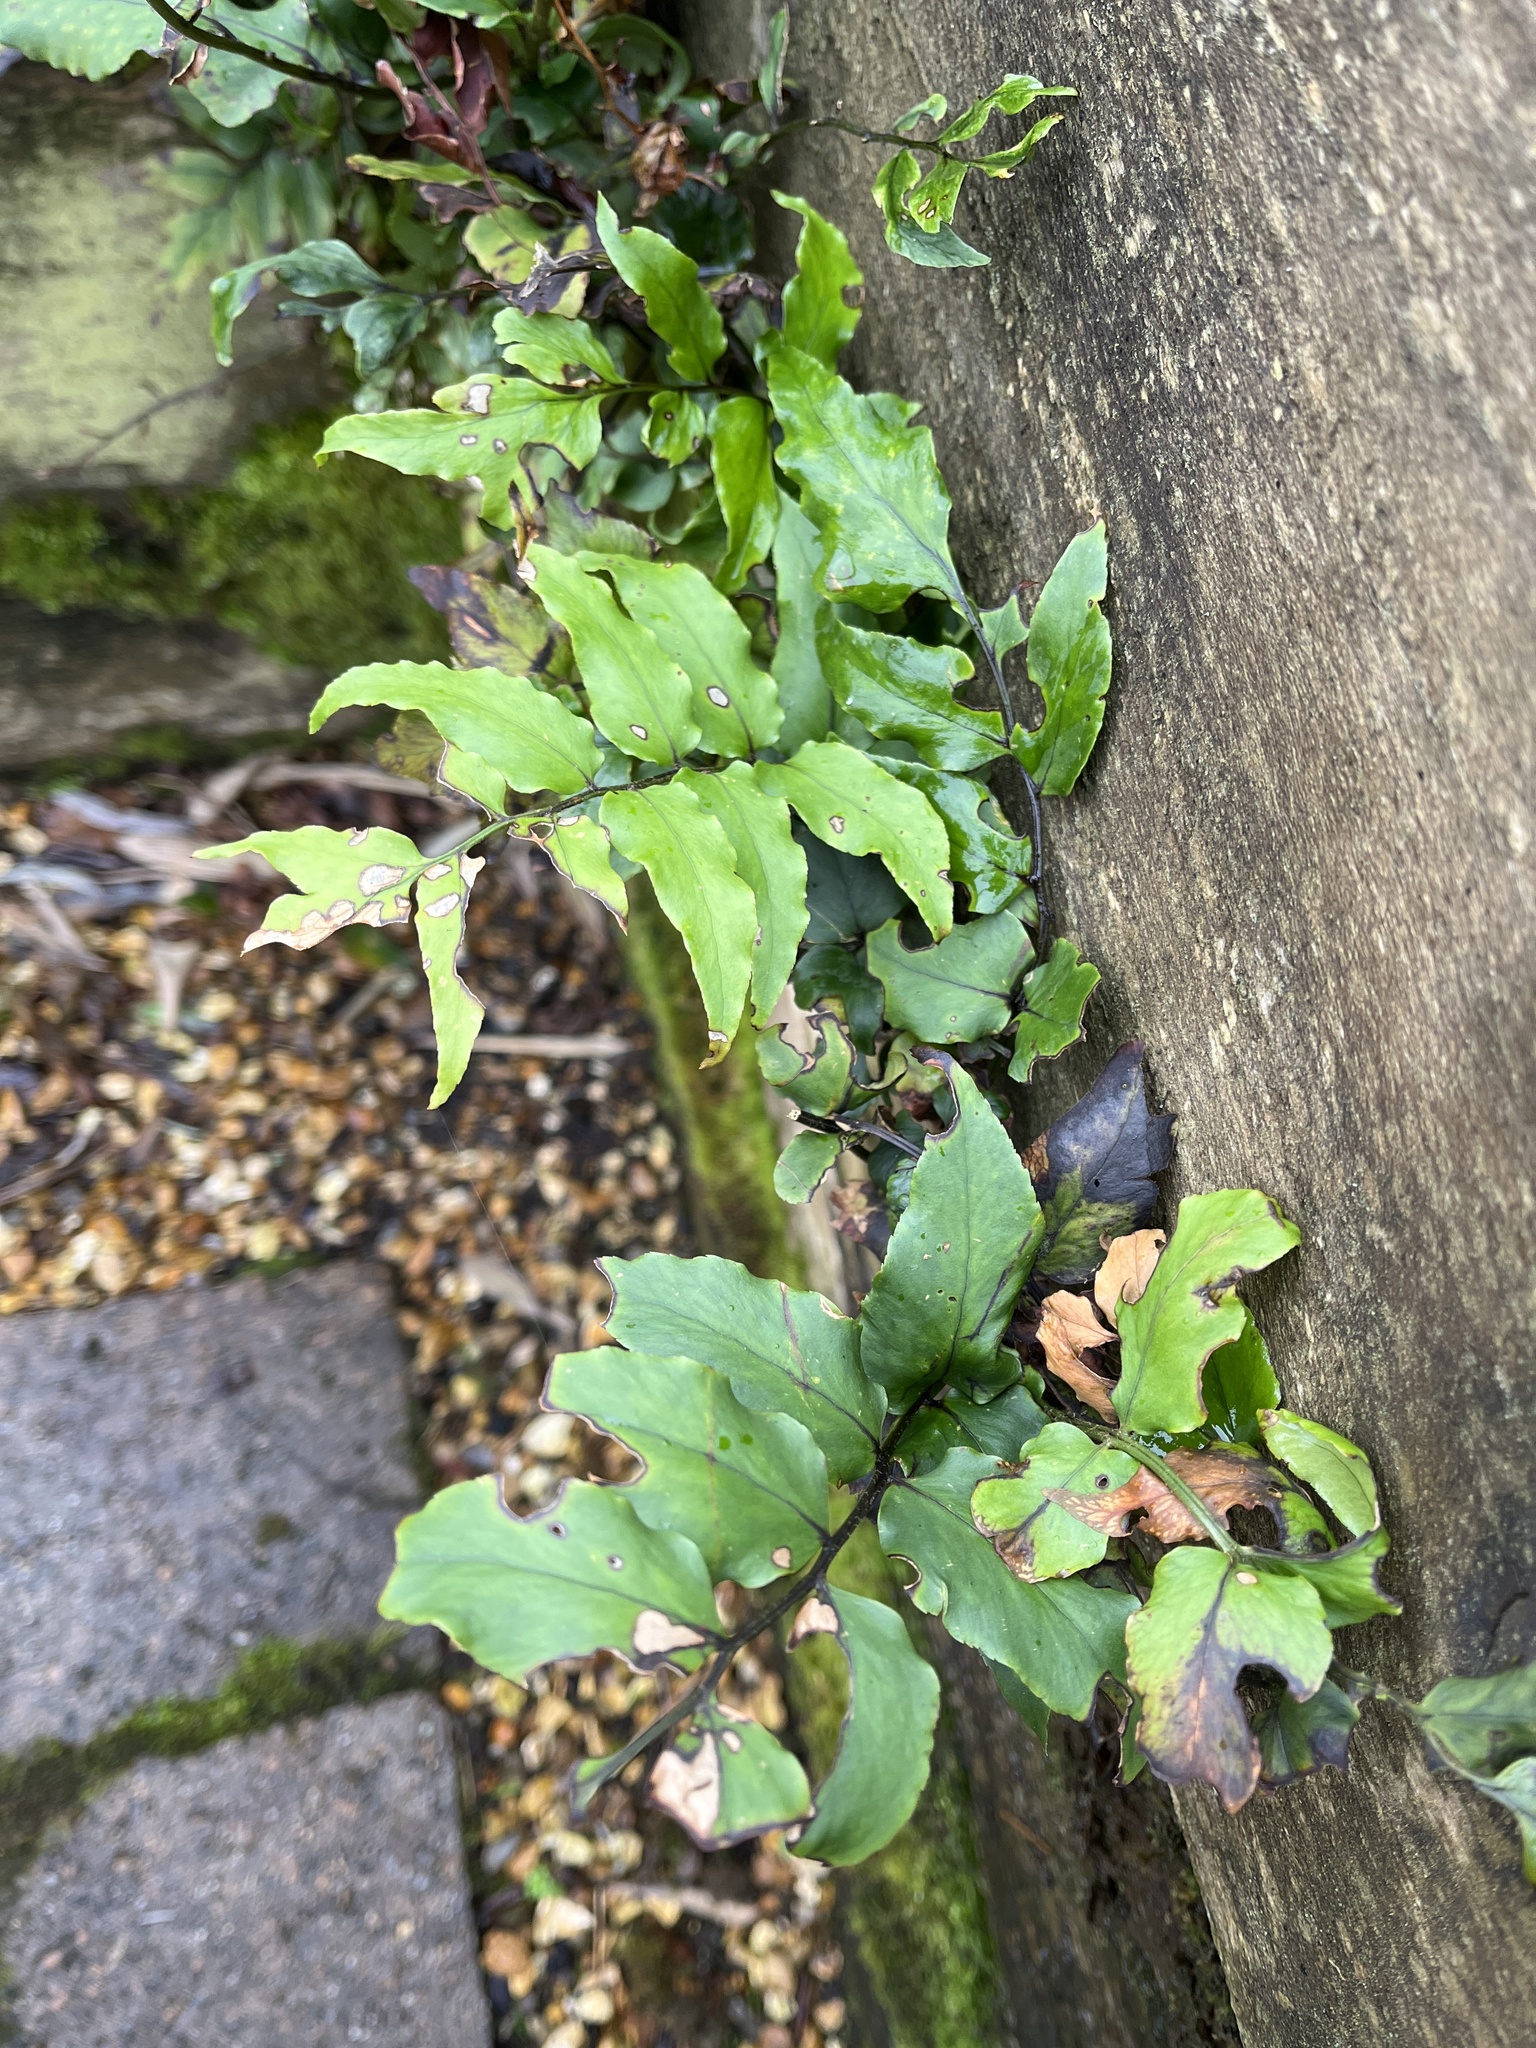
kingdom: Plantae
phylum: Tracheophyta
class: Polypodiopsida
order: Polypodiales
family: Dryopteridaceae
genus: Cyrtomium
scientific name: Cyrtomium fortunei
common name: Asian netvein hollyfern
